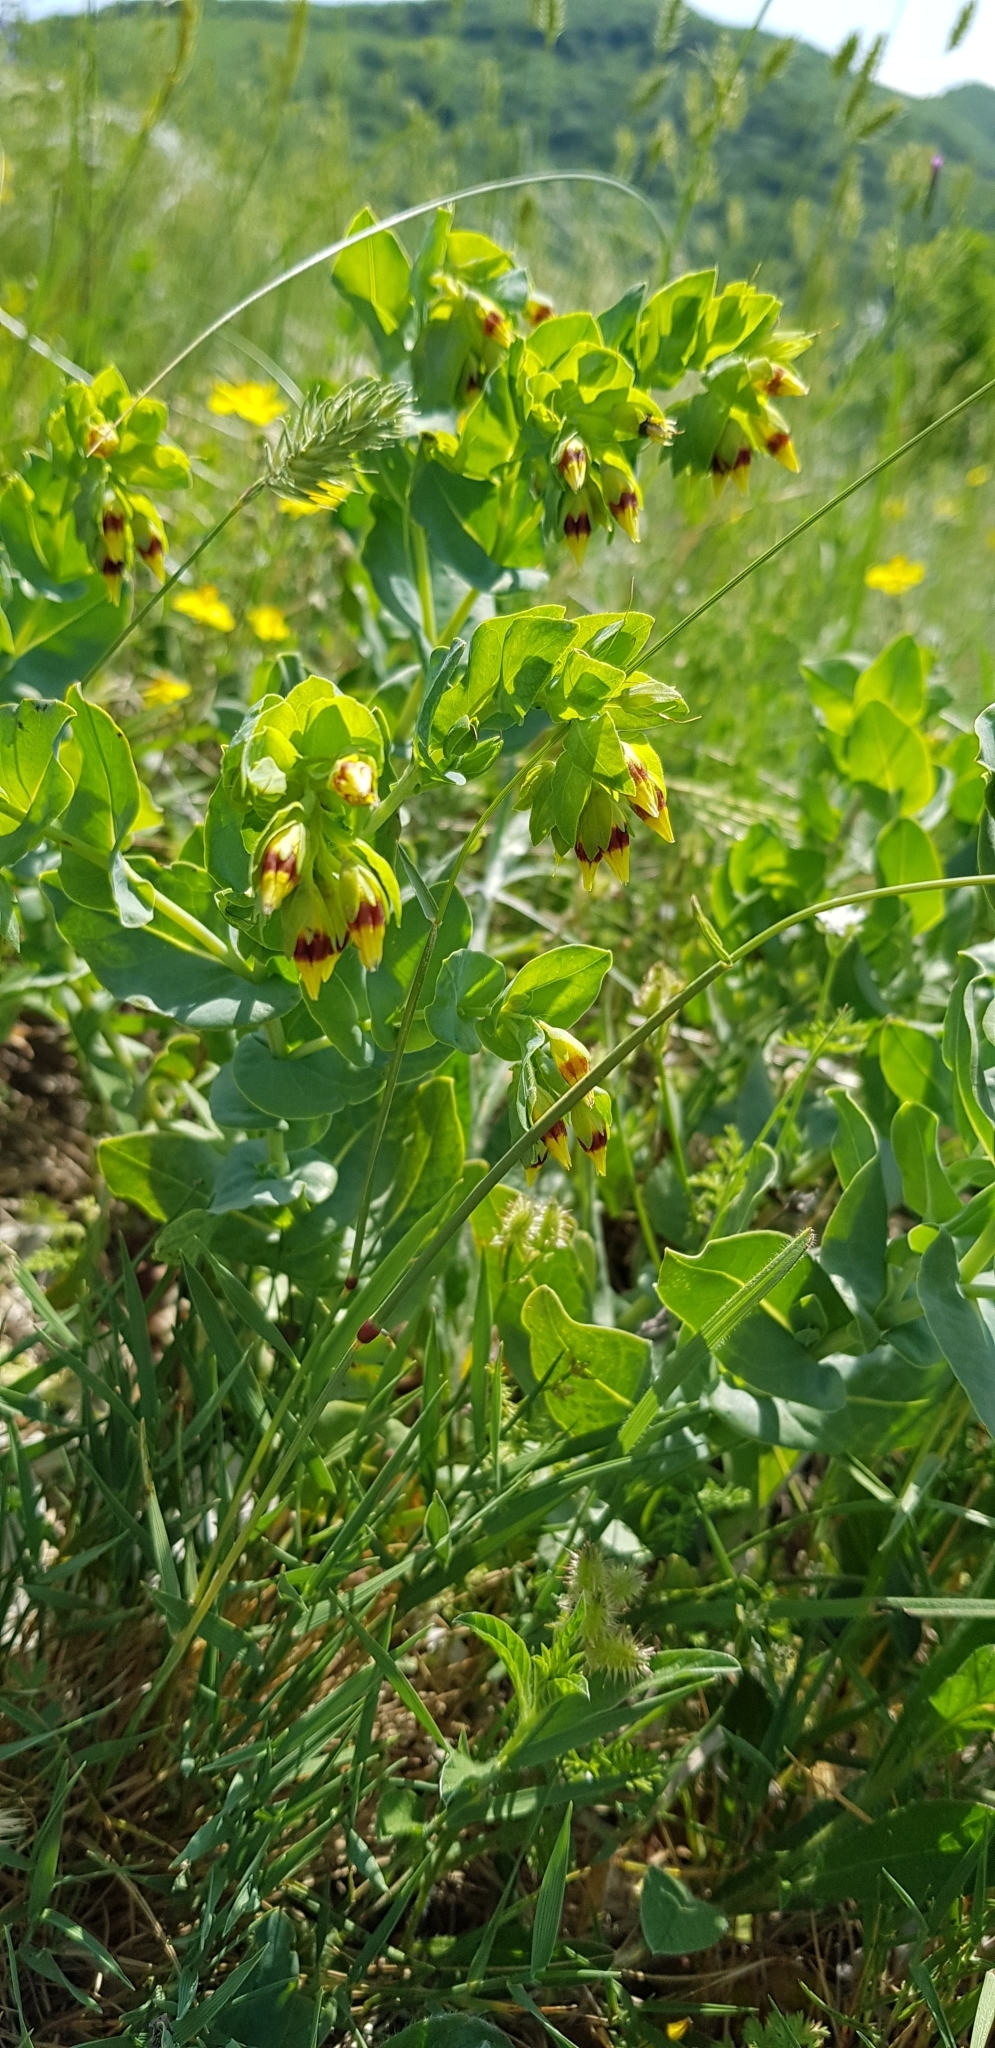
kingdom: Plantae
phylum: Tracheophyta
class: Magnoliopsida
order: Boraginales
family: Boraginaceae
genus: Cerinthe
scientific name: Cerinthe minor
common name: Lesser honeywort
